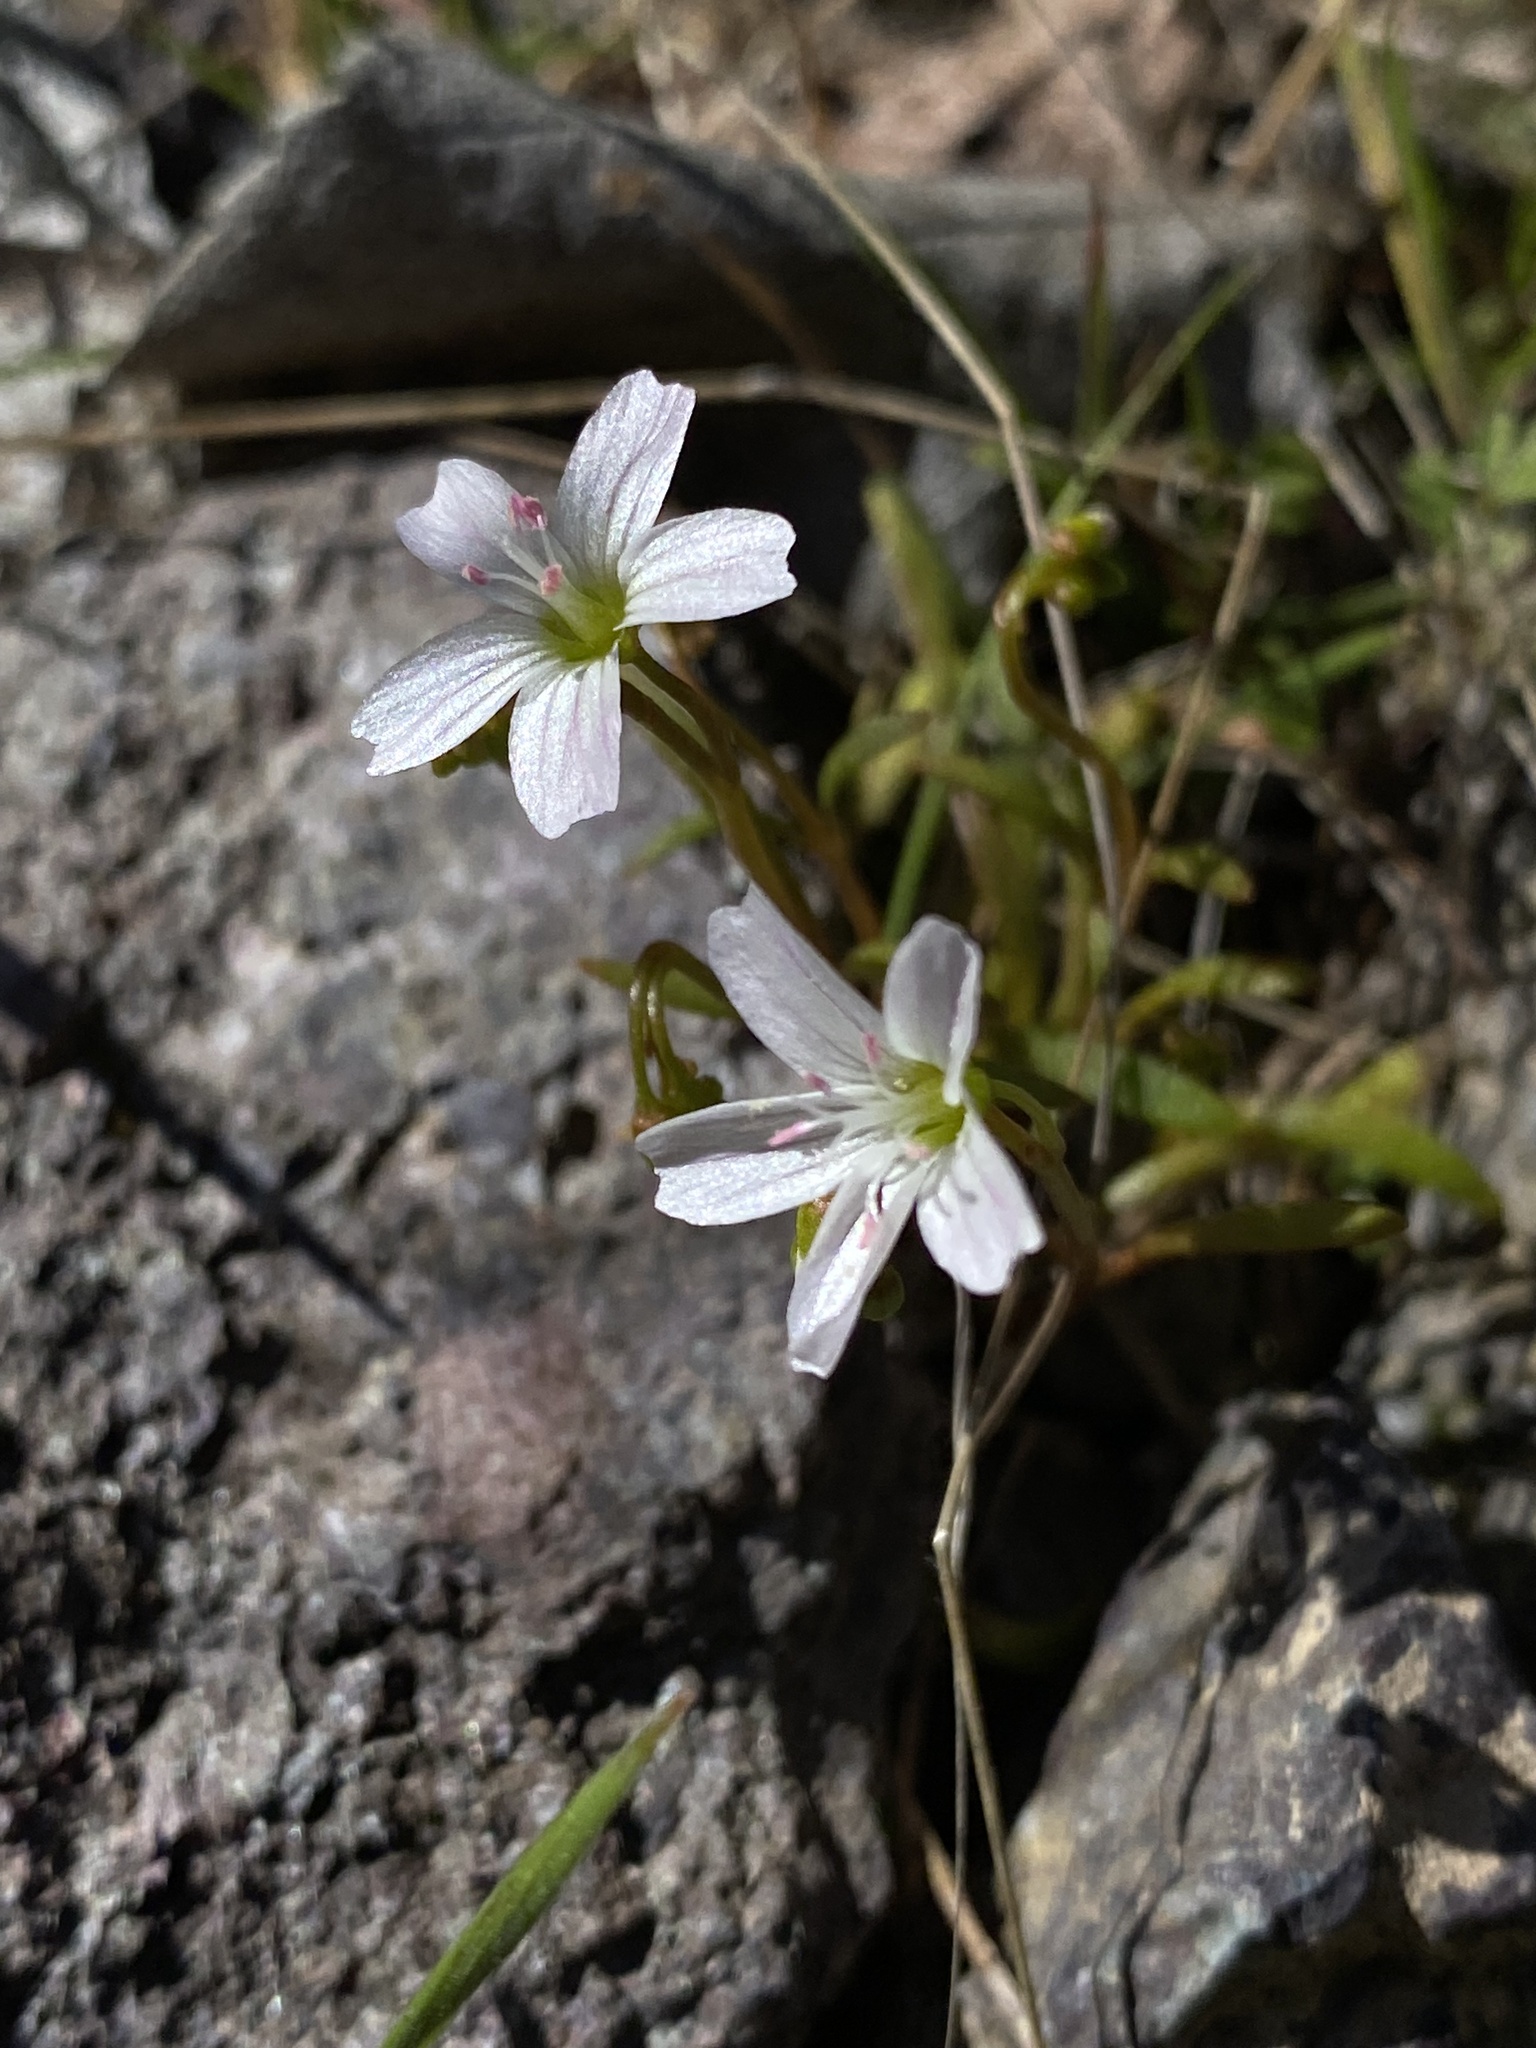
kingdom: Plantae
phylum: Tracheophyta
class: Magnoliopsida
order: Caryophyllales
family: Montiaceae
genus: Claytonia
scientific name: Claytonia arenicola
